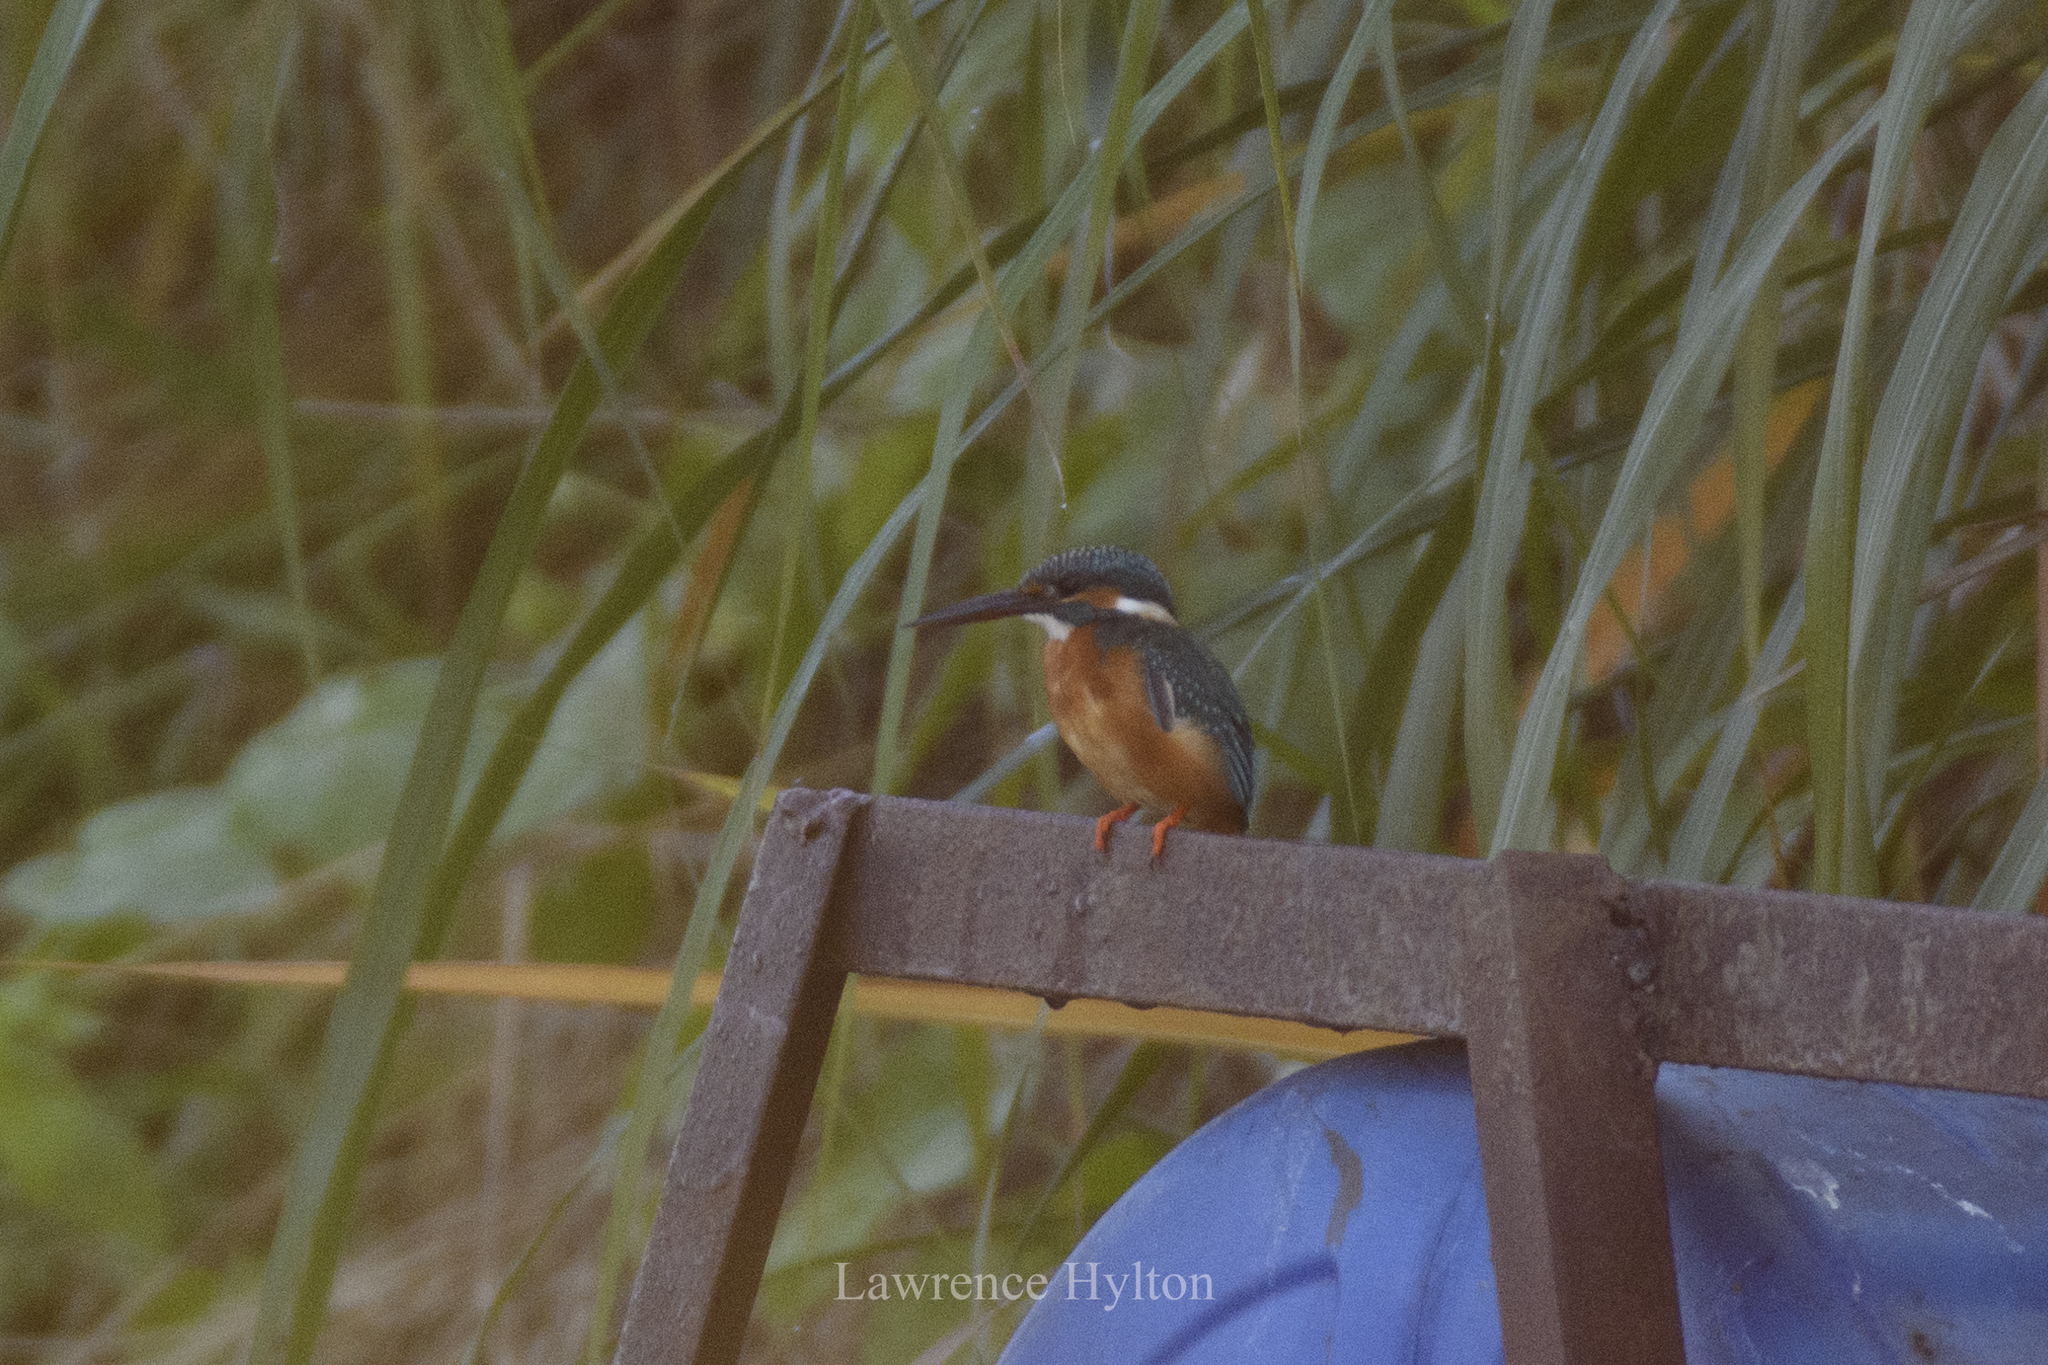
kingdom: Animalia
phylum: Chordata
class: Aves
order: Coraciiformes
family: Alcedinidae
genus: Alcedo
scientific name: Alcedo atthis
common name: Common kingfisher
